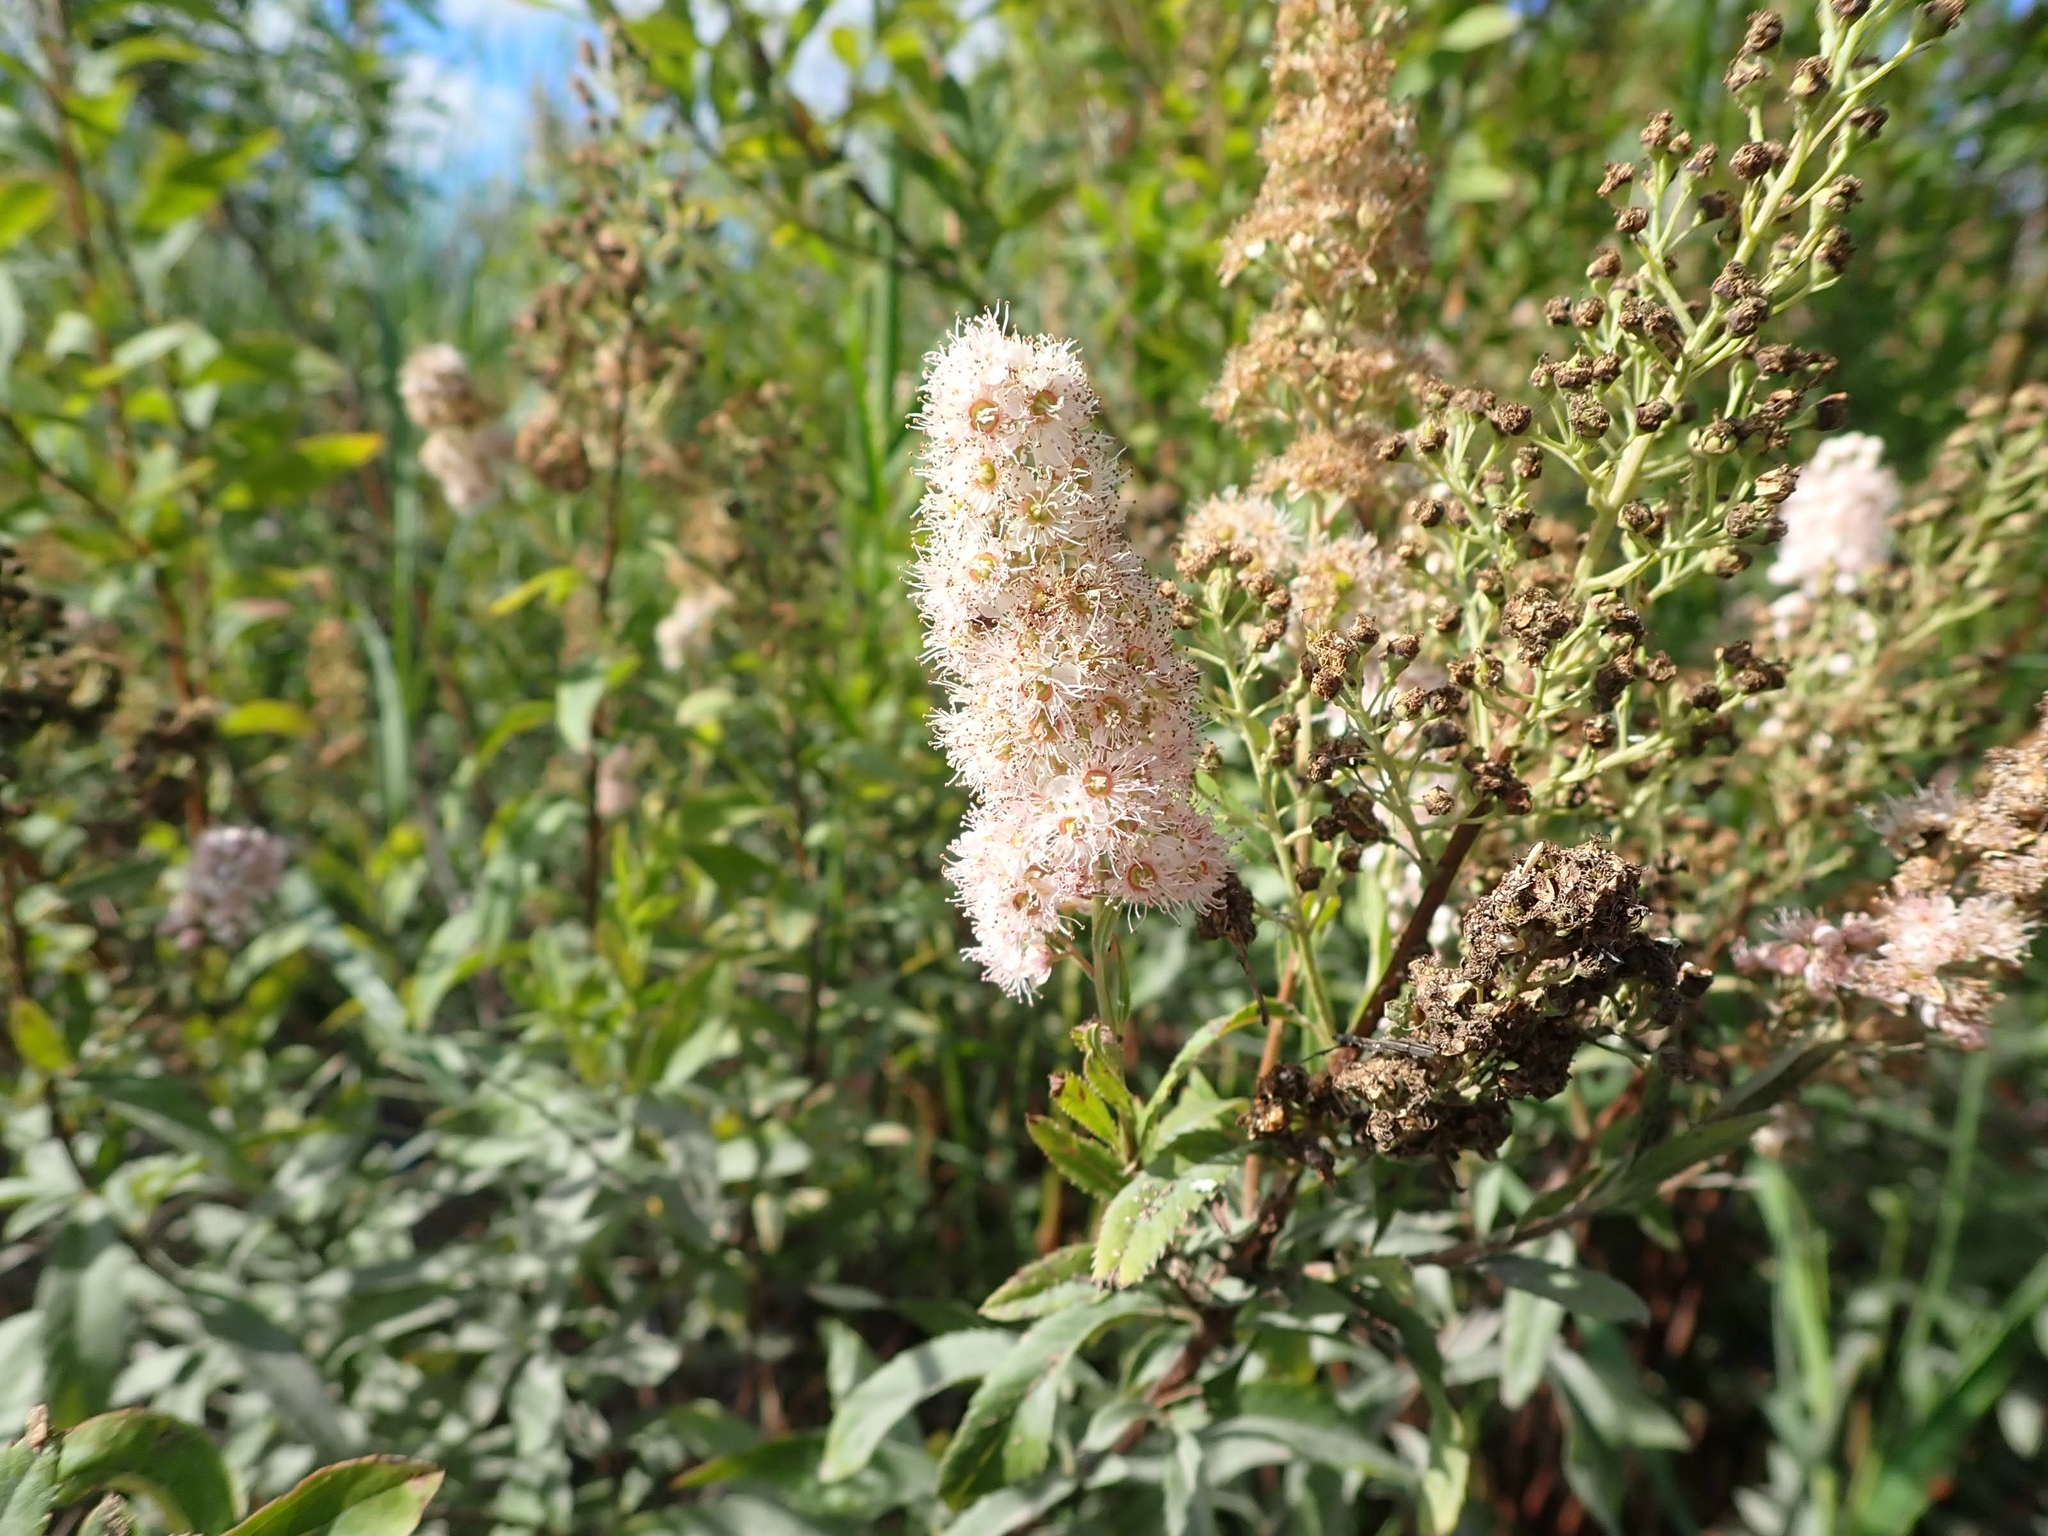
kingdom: Plantae
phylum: Tracheophyta
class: Magnoliopsida
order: Rosales
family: Rosaceae
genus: Spiraea
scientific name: Spiraea alba
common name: Pale bridewort
